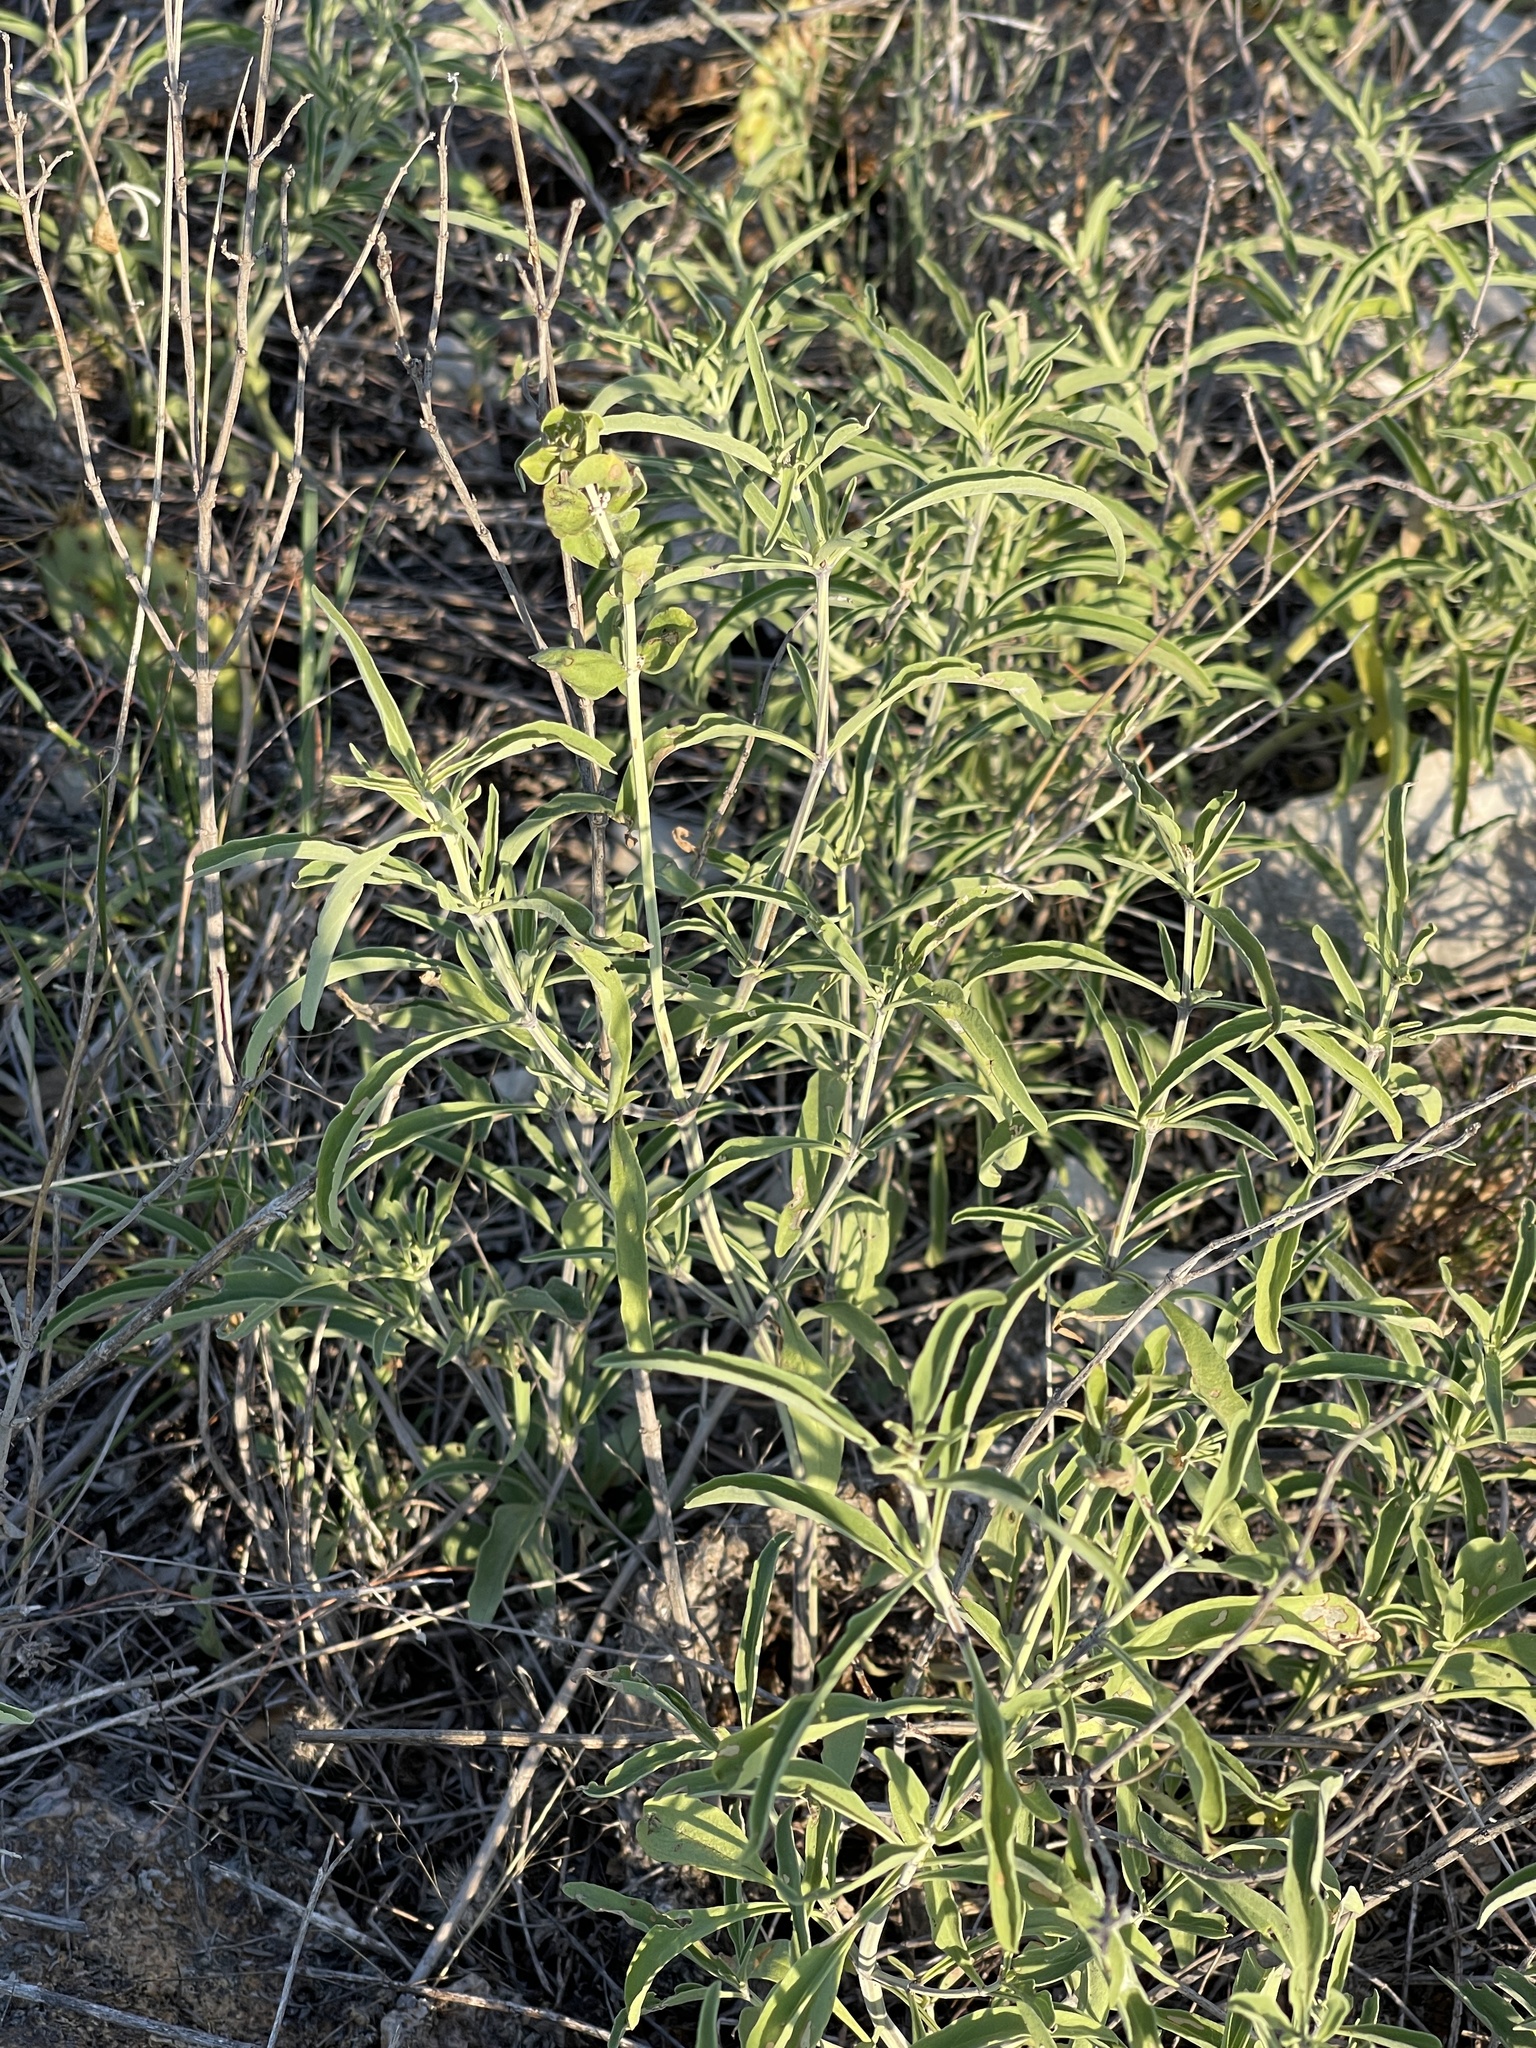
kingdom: Plantae
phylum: Tracheophyta
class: Magnoliopsida
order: Lamiales
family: Lamiaceae
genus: Salvia
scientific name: Salvia farinacea
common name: Mealy sage
